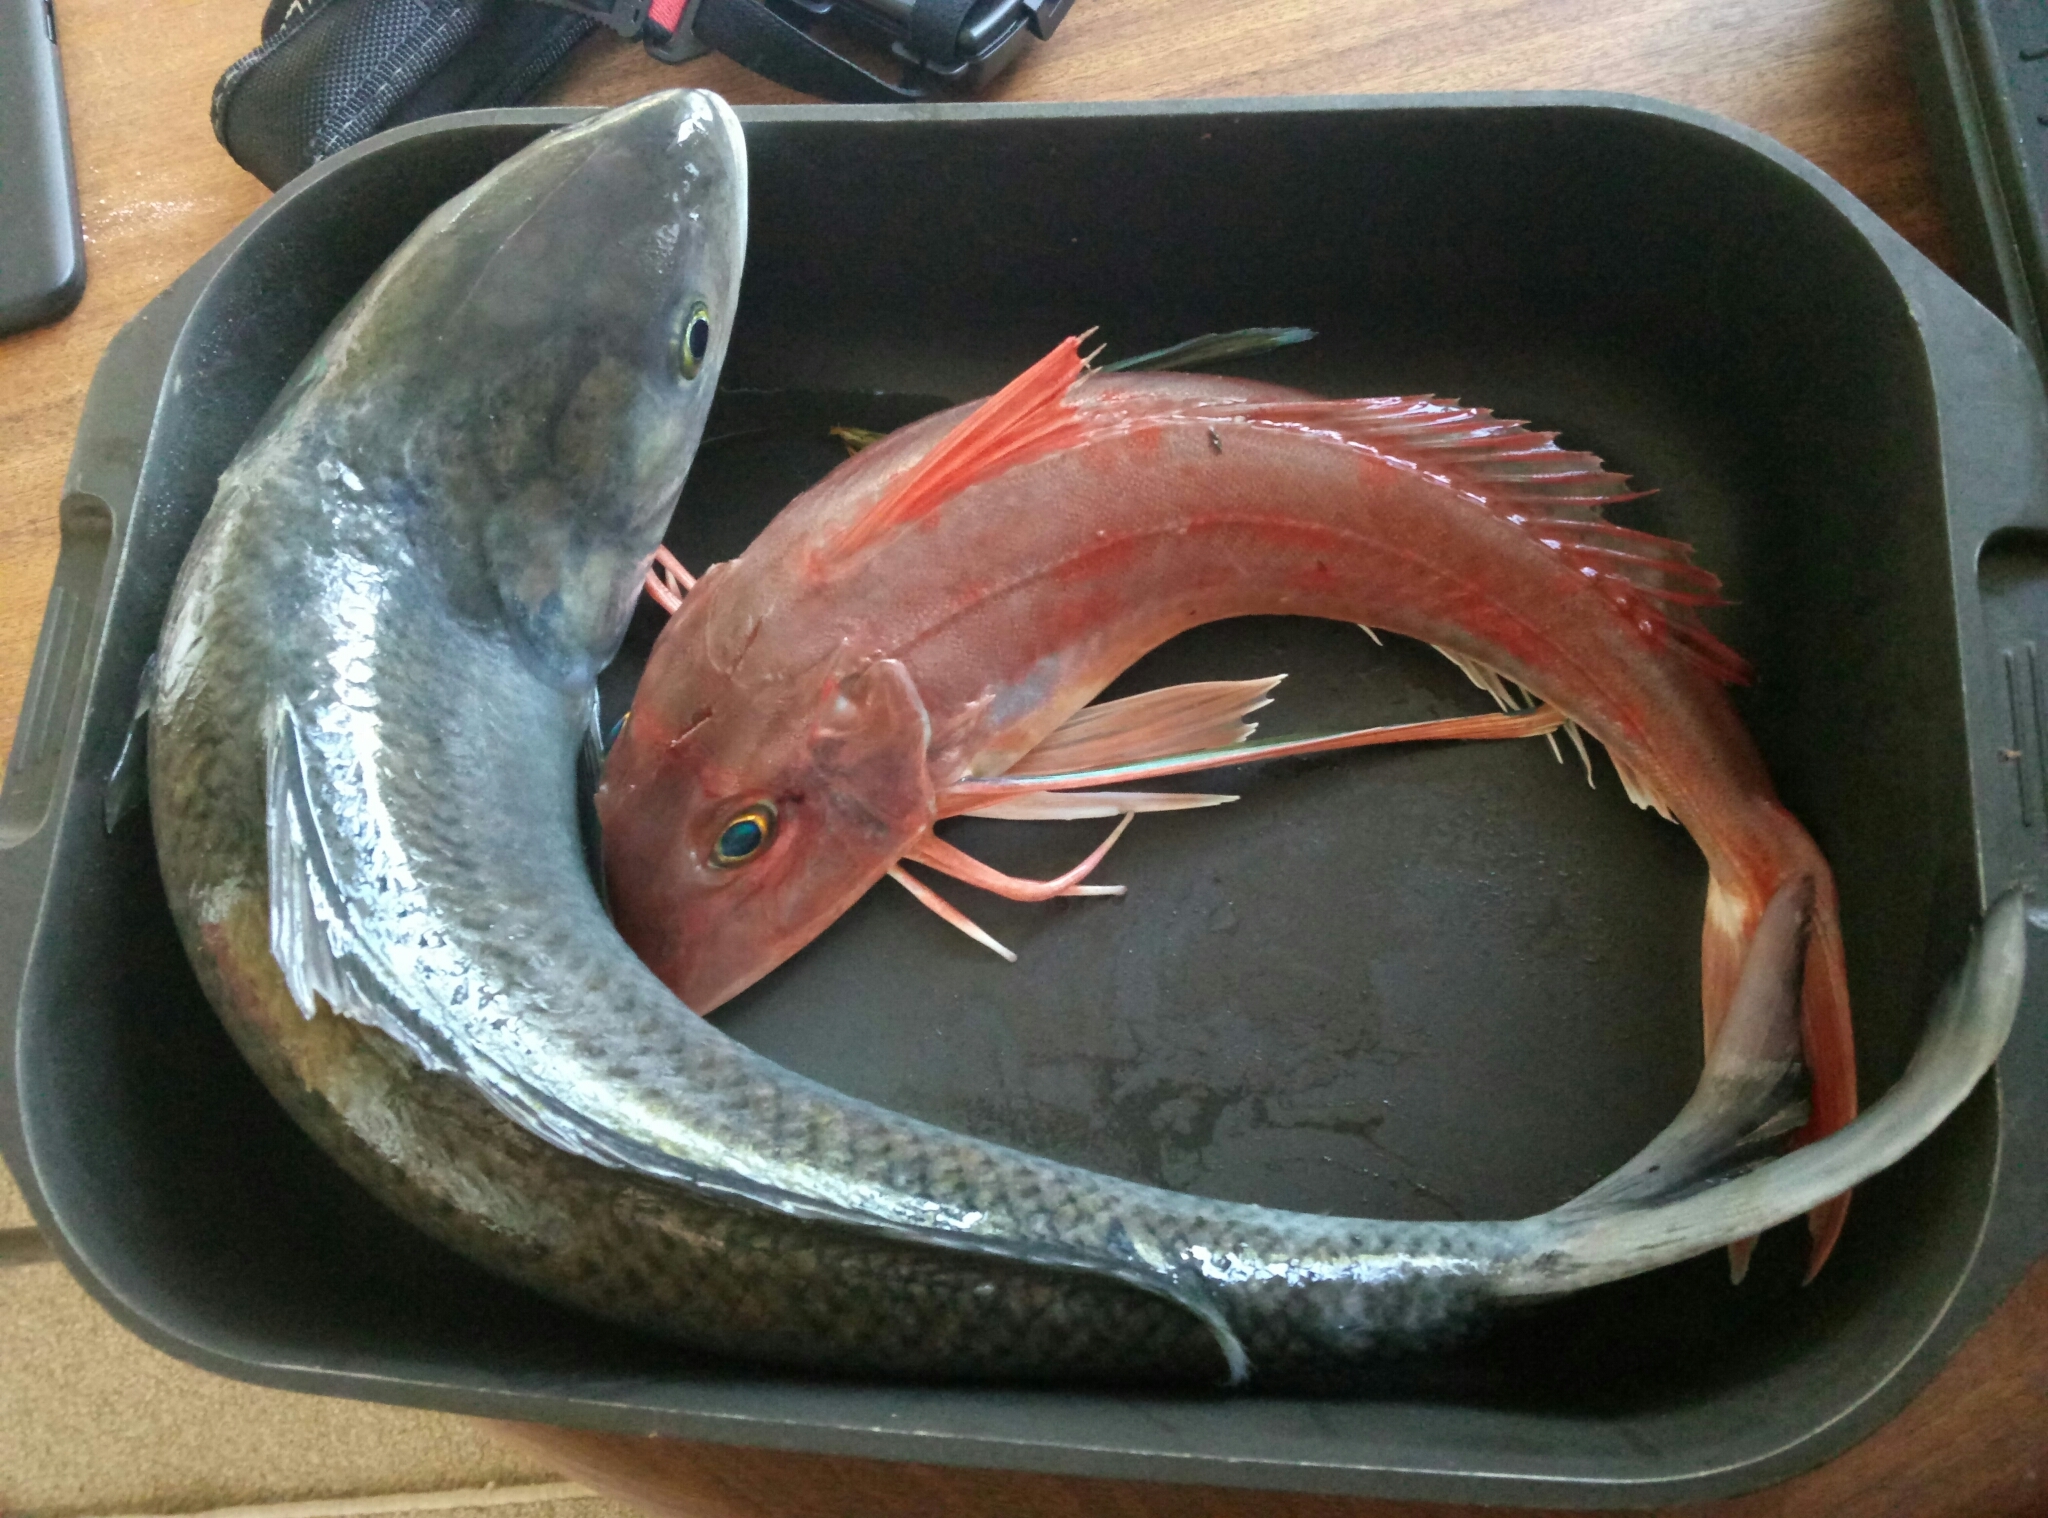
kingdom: Animalia
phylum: Chordata
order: Scorpaeniformes
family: Triglidae
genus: Chelidonichthys
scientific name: Chelidonichthys kumu
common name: Bluefin gurnard
